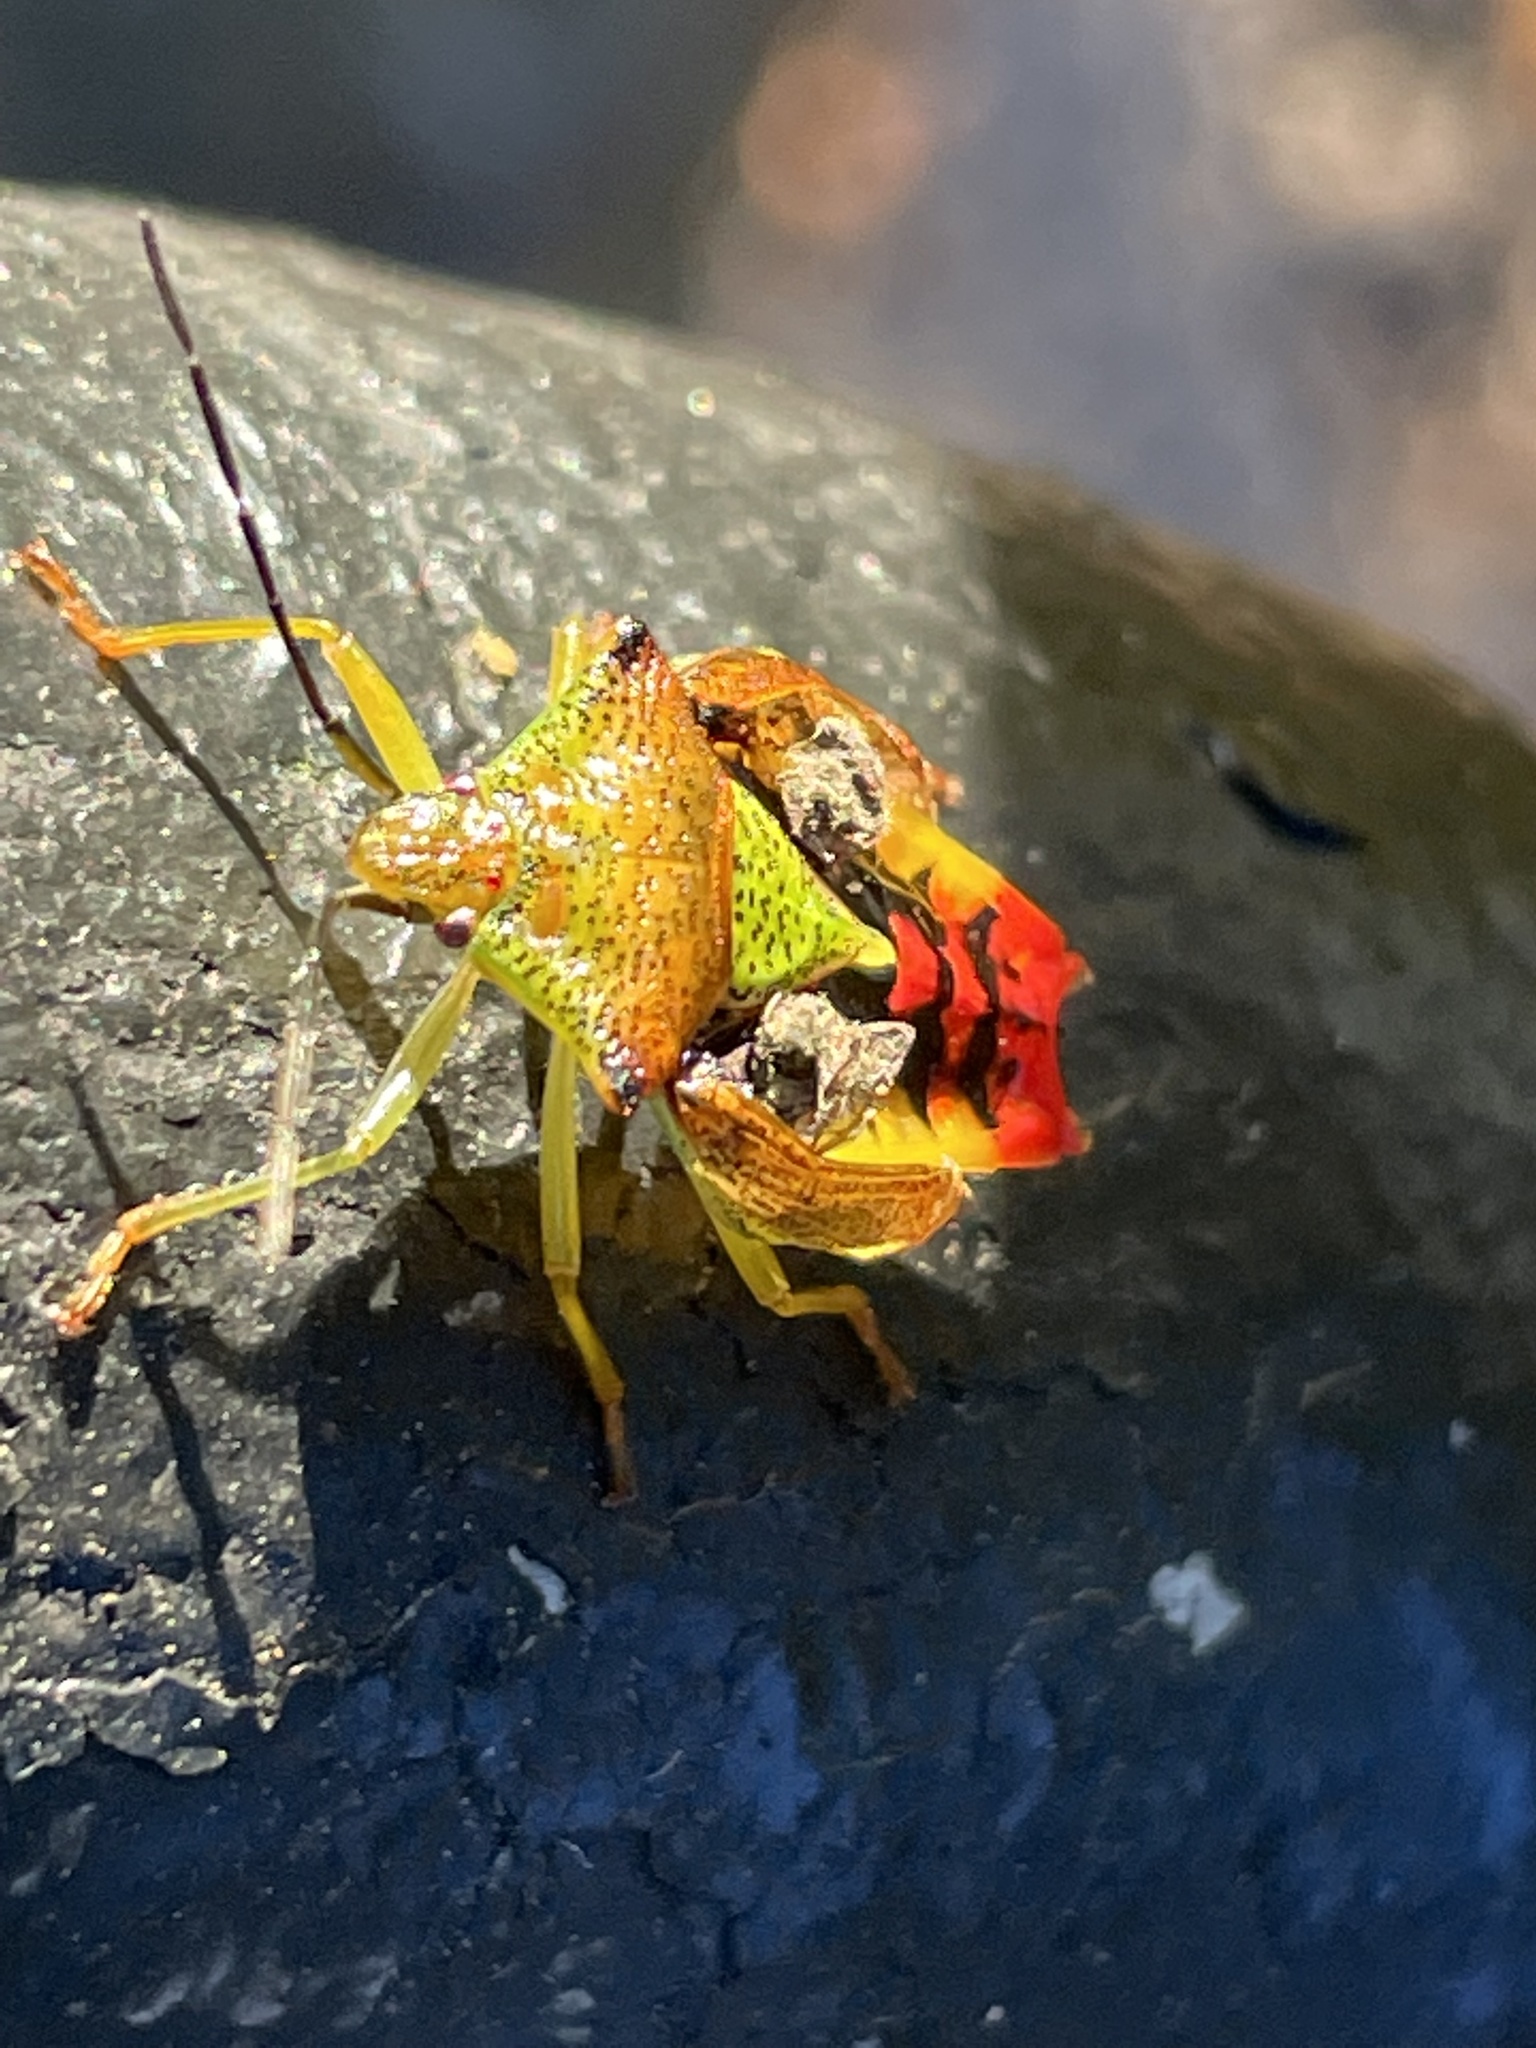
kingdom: Animalia
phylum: Arthropoda
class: Insecta
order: Hemiptera
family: Acanthosomatidae
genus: Acanthosoma
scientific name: Acanthosoma haemorrhoidale
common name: Hawthorn shieldbug
